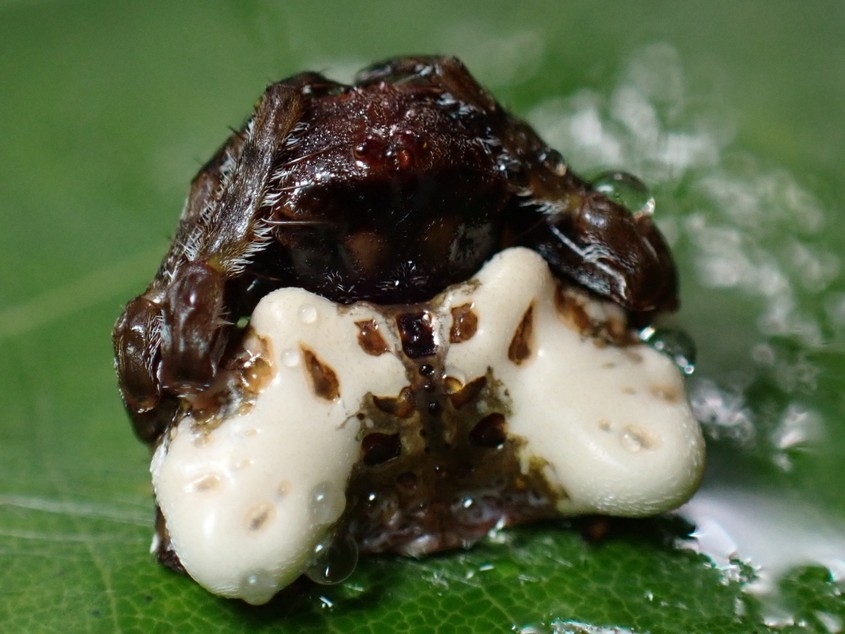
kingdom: Animalia
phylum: Arthropoda
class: Arachnida
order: Araneae
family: Arkyidae
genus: Arkys
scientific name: Arkys curtulus
